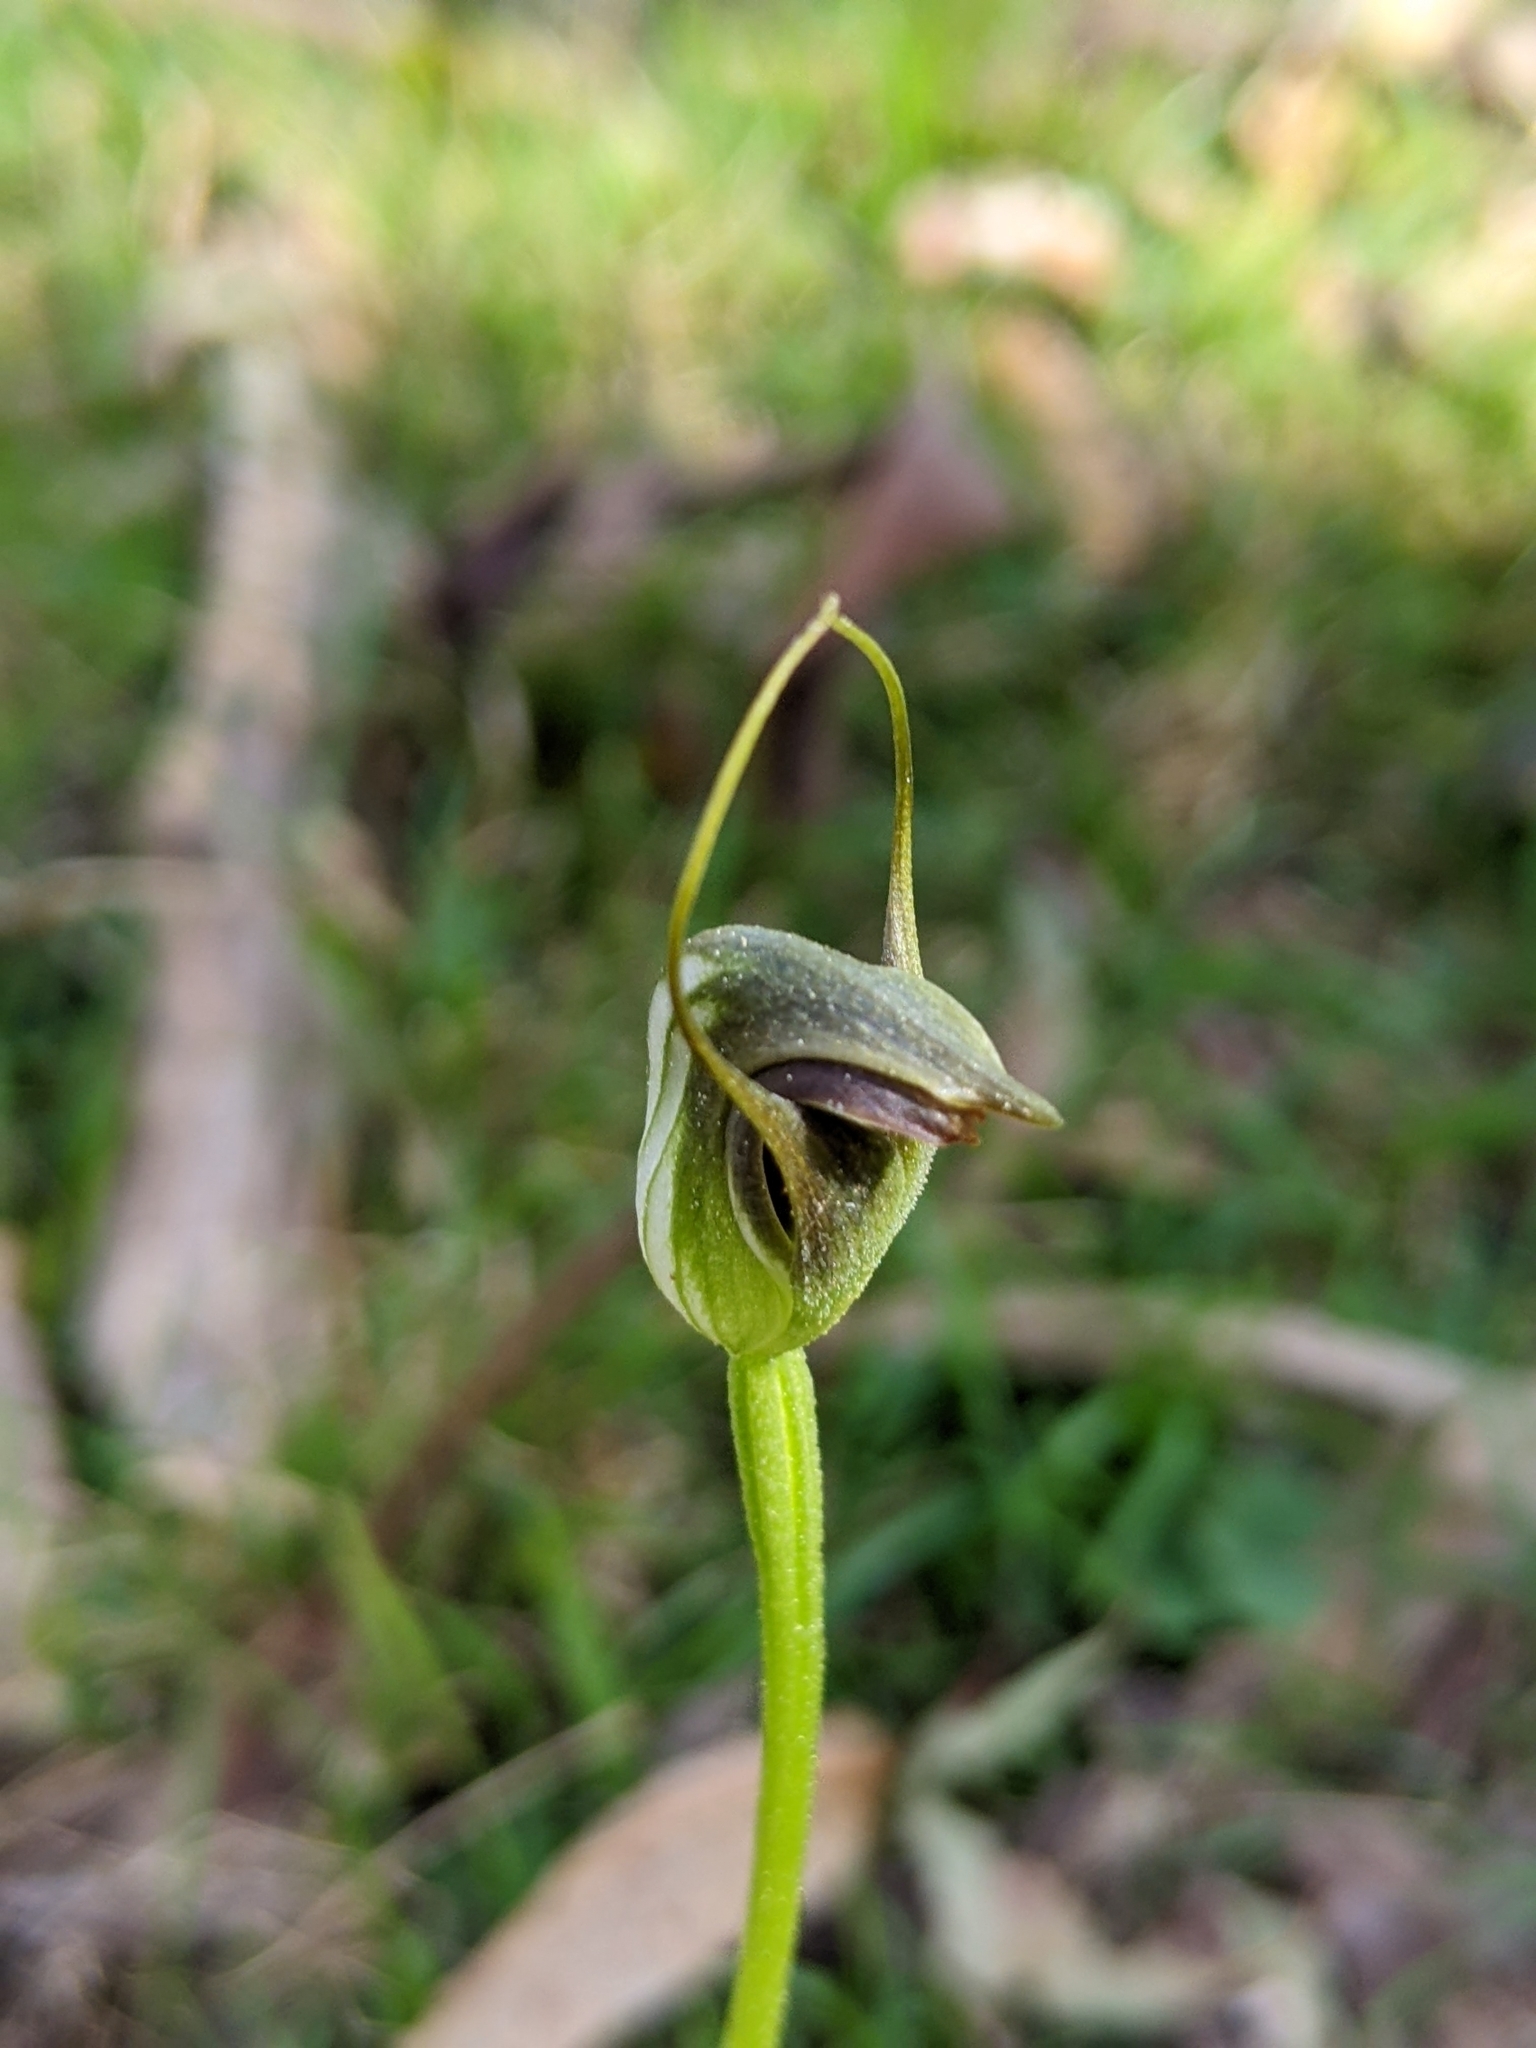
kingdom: Plantae
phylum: Tracheophyta
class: Liliopsida
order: Asparagales
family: Orchidaceae
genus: Pterostylis
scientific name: Pterostylis pedunculata
